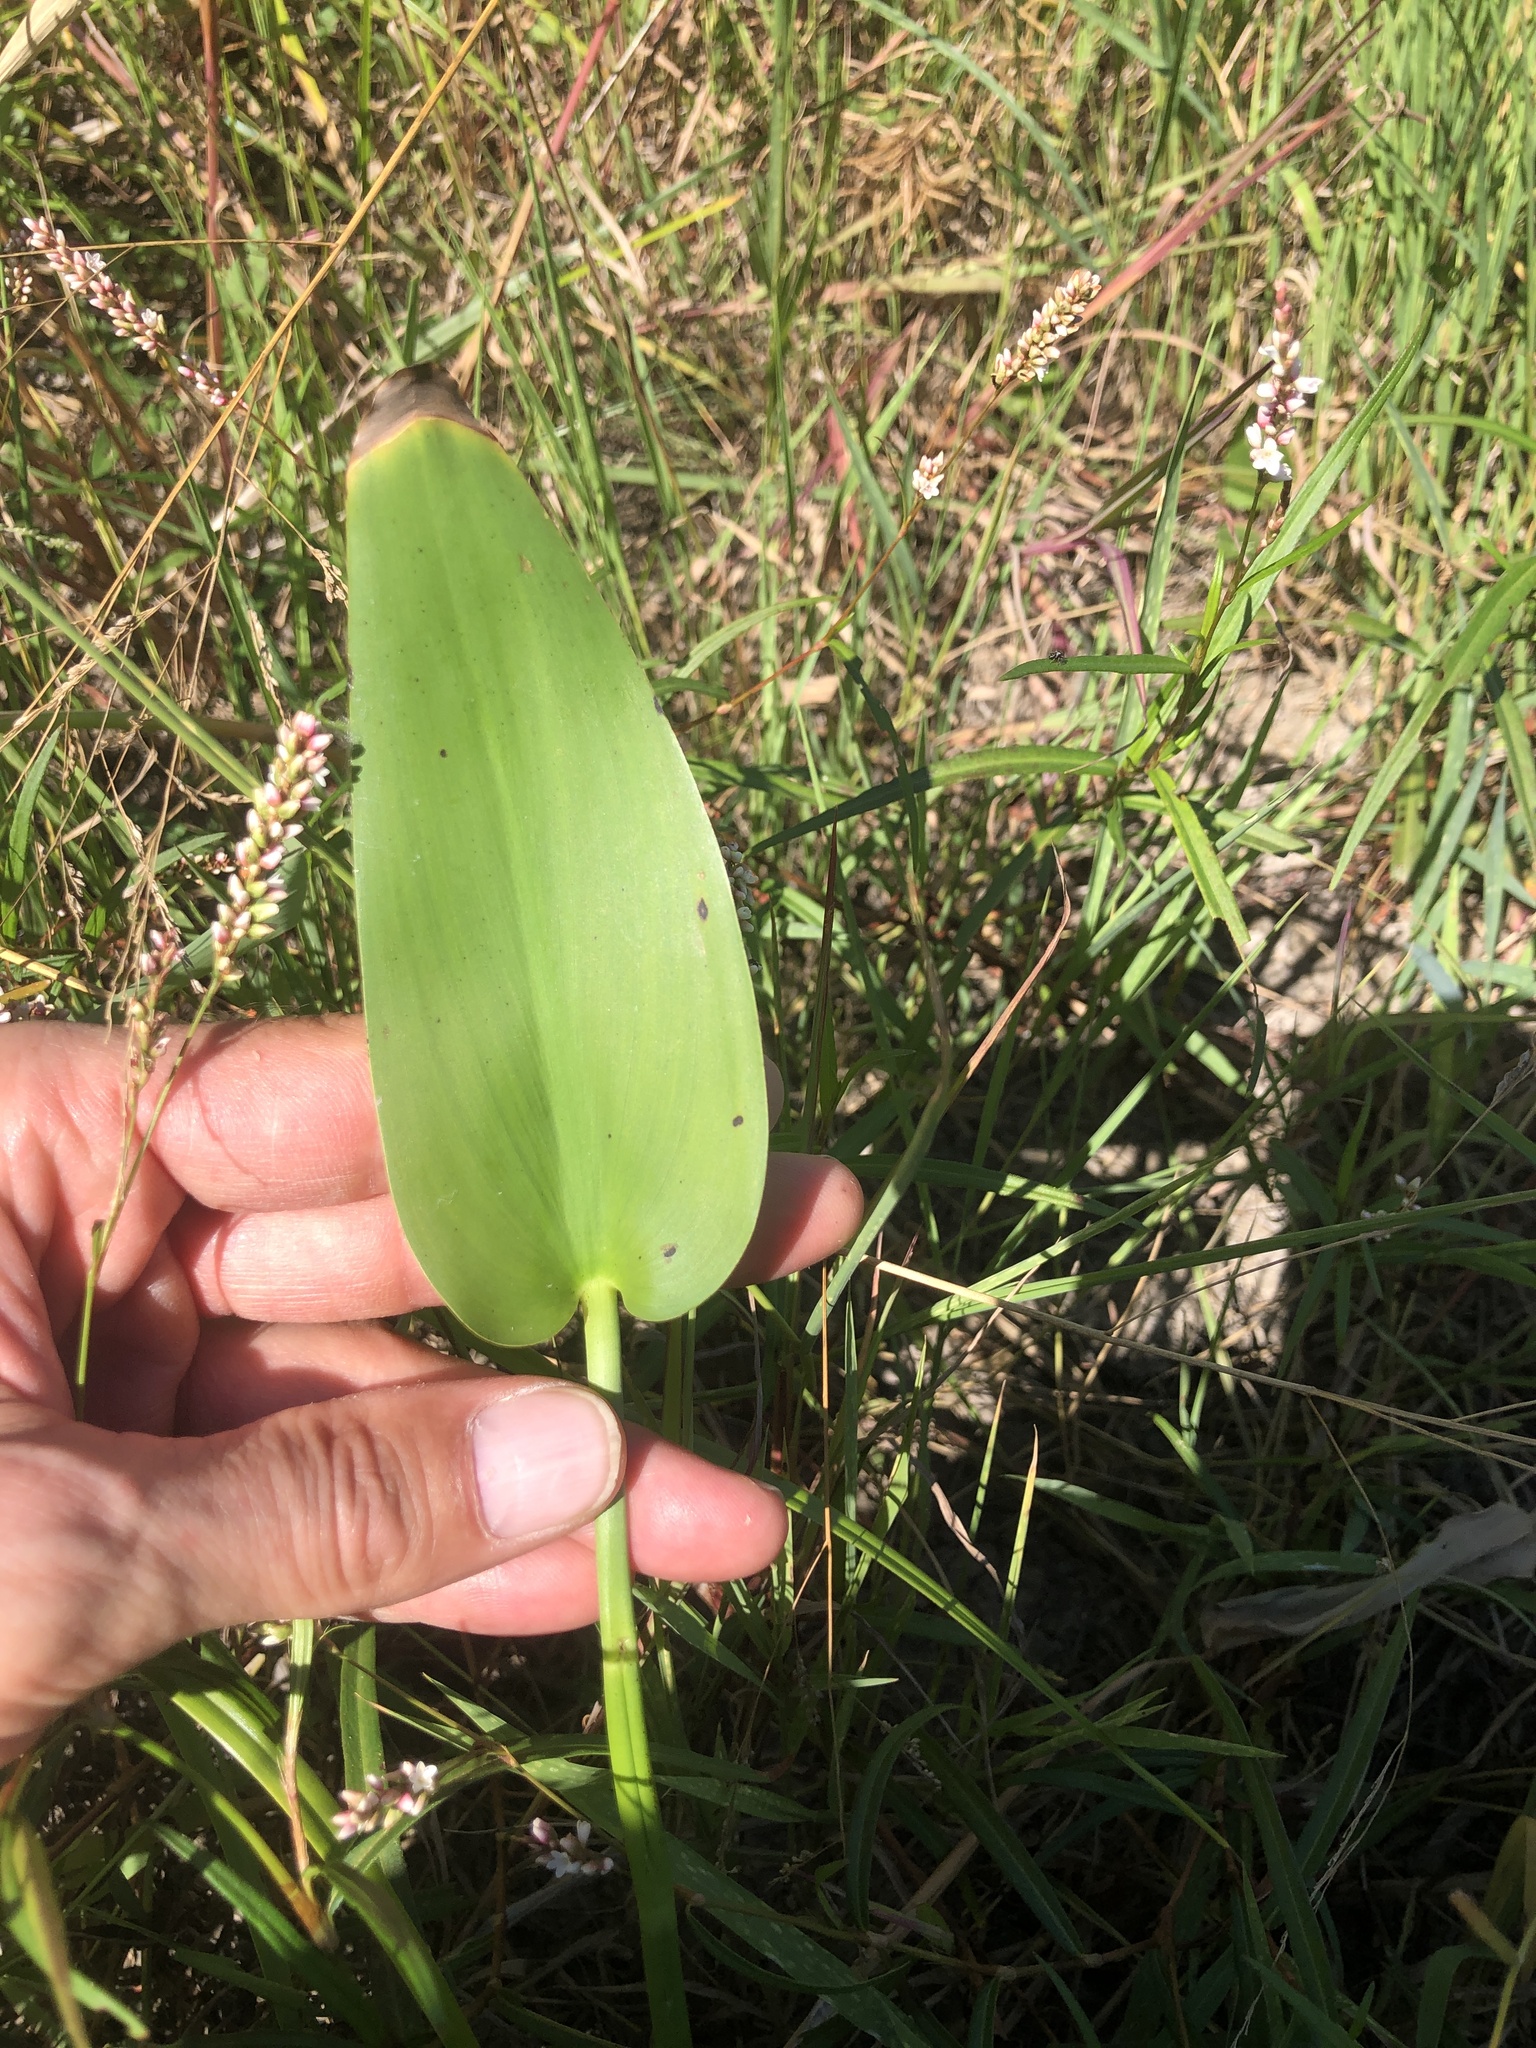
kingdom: Plantae
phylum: Tracheophyta
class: Liliopsida
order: Commelinales
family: Pontederiaceae
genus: Pontederia
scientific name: Pontederia cordata
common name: Pickerelweed
